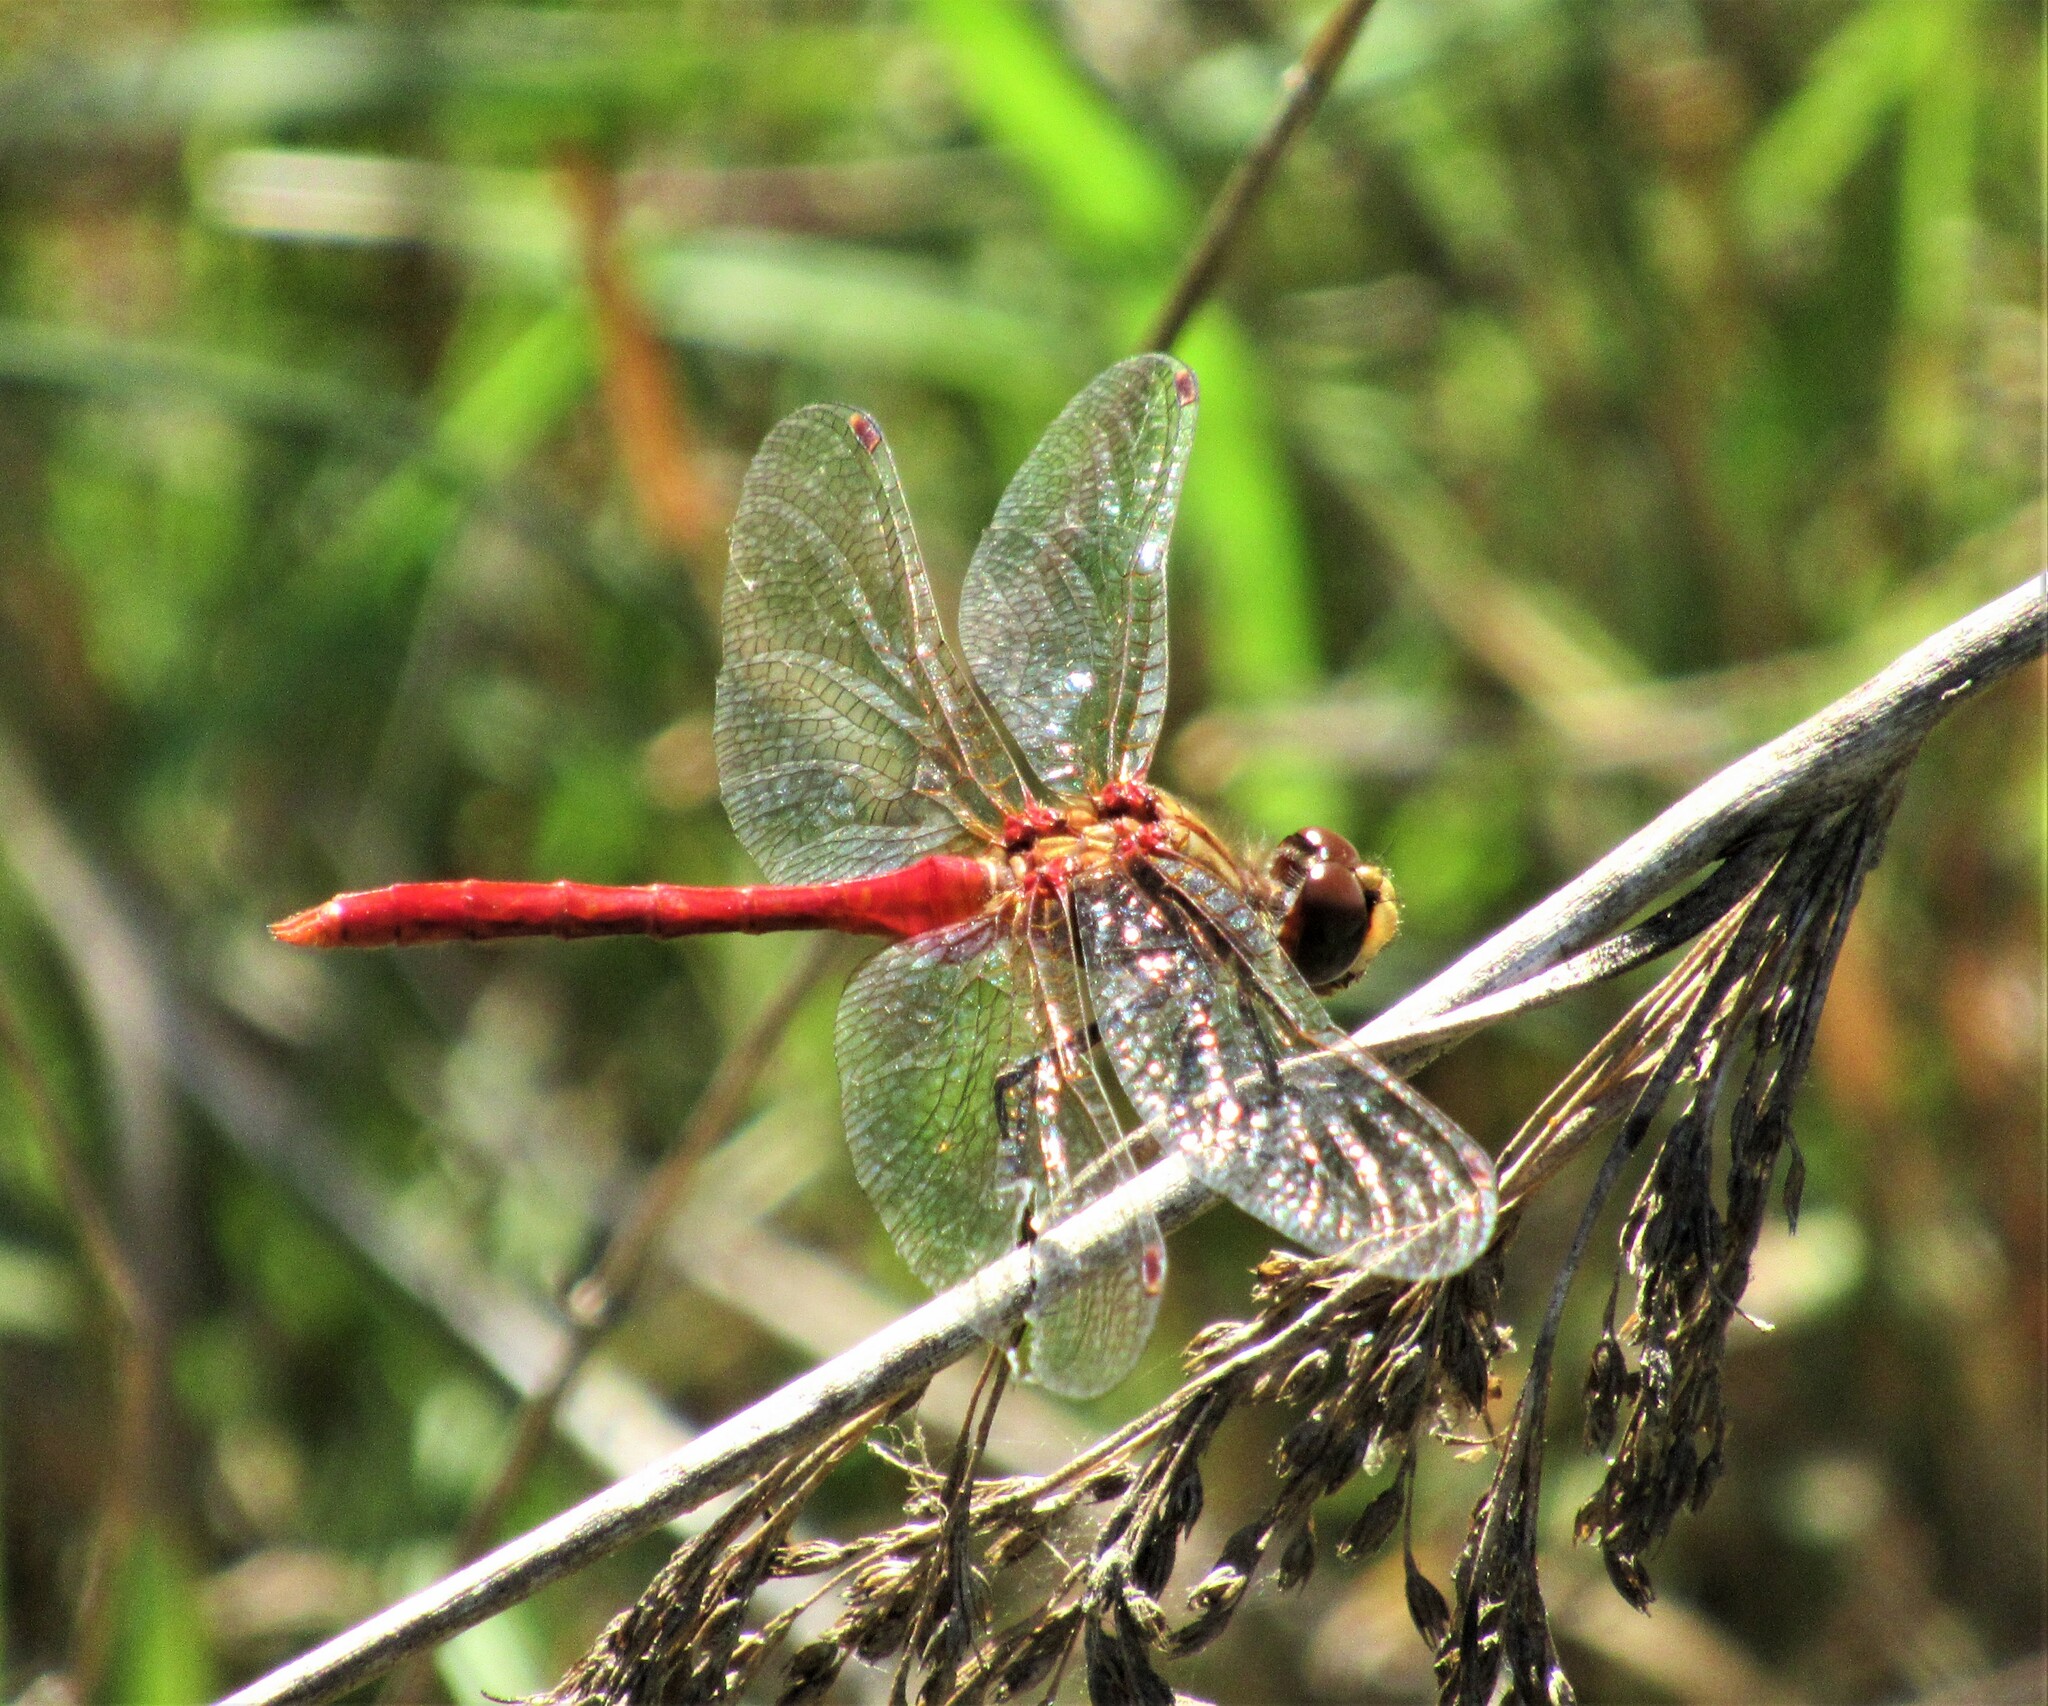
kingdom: Animalia
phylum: Arthropoda
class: Insecta
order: Odonata
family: Libellulidae
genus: Sympetrum
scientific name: Sympetrum pallipes
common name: Striped meadowhawk
